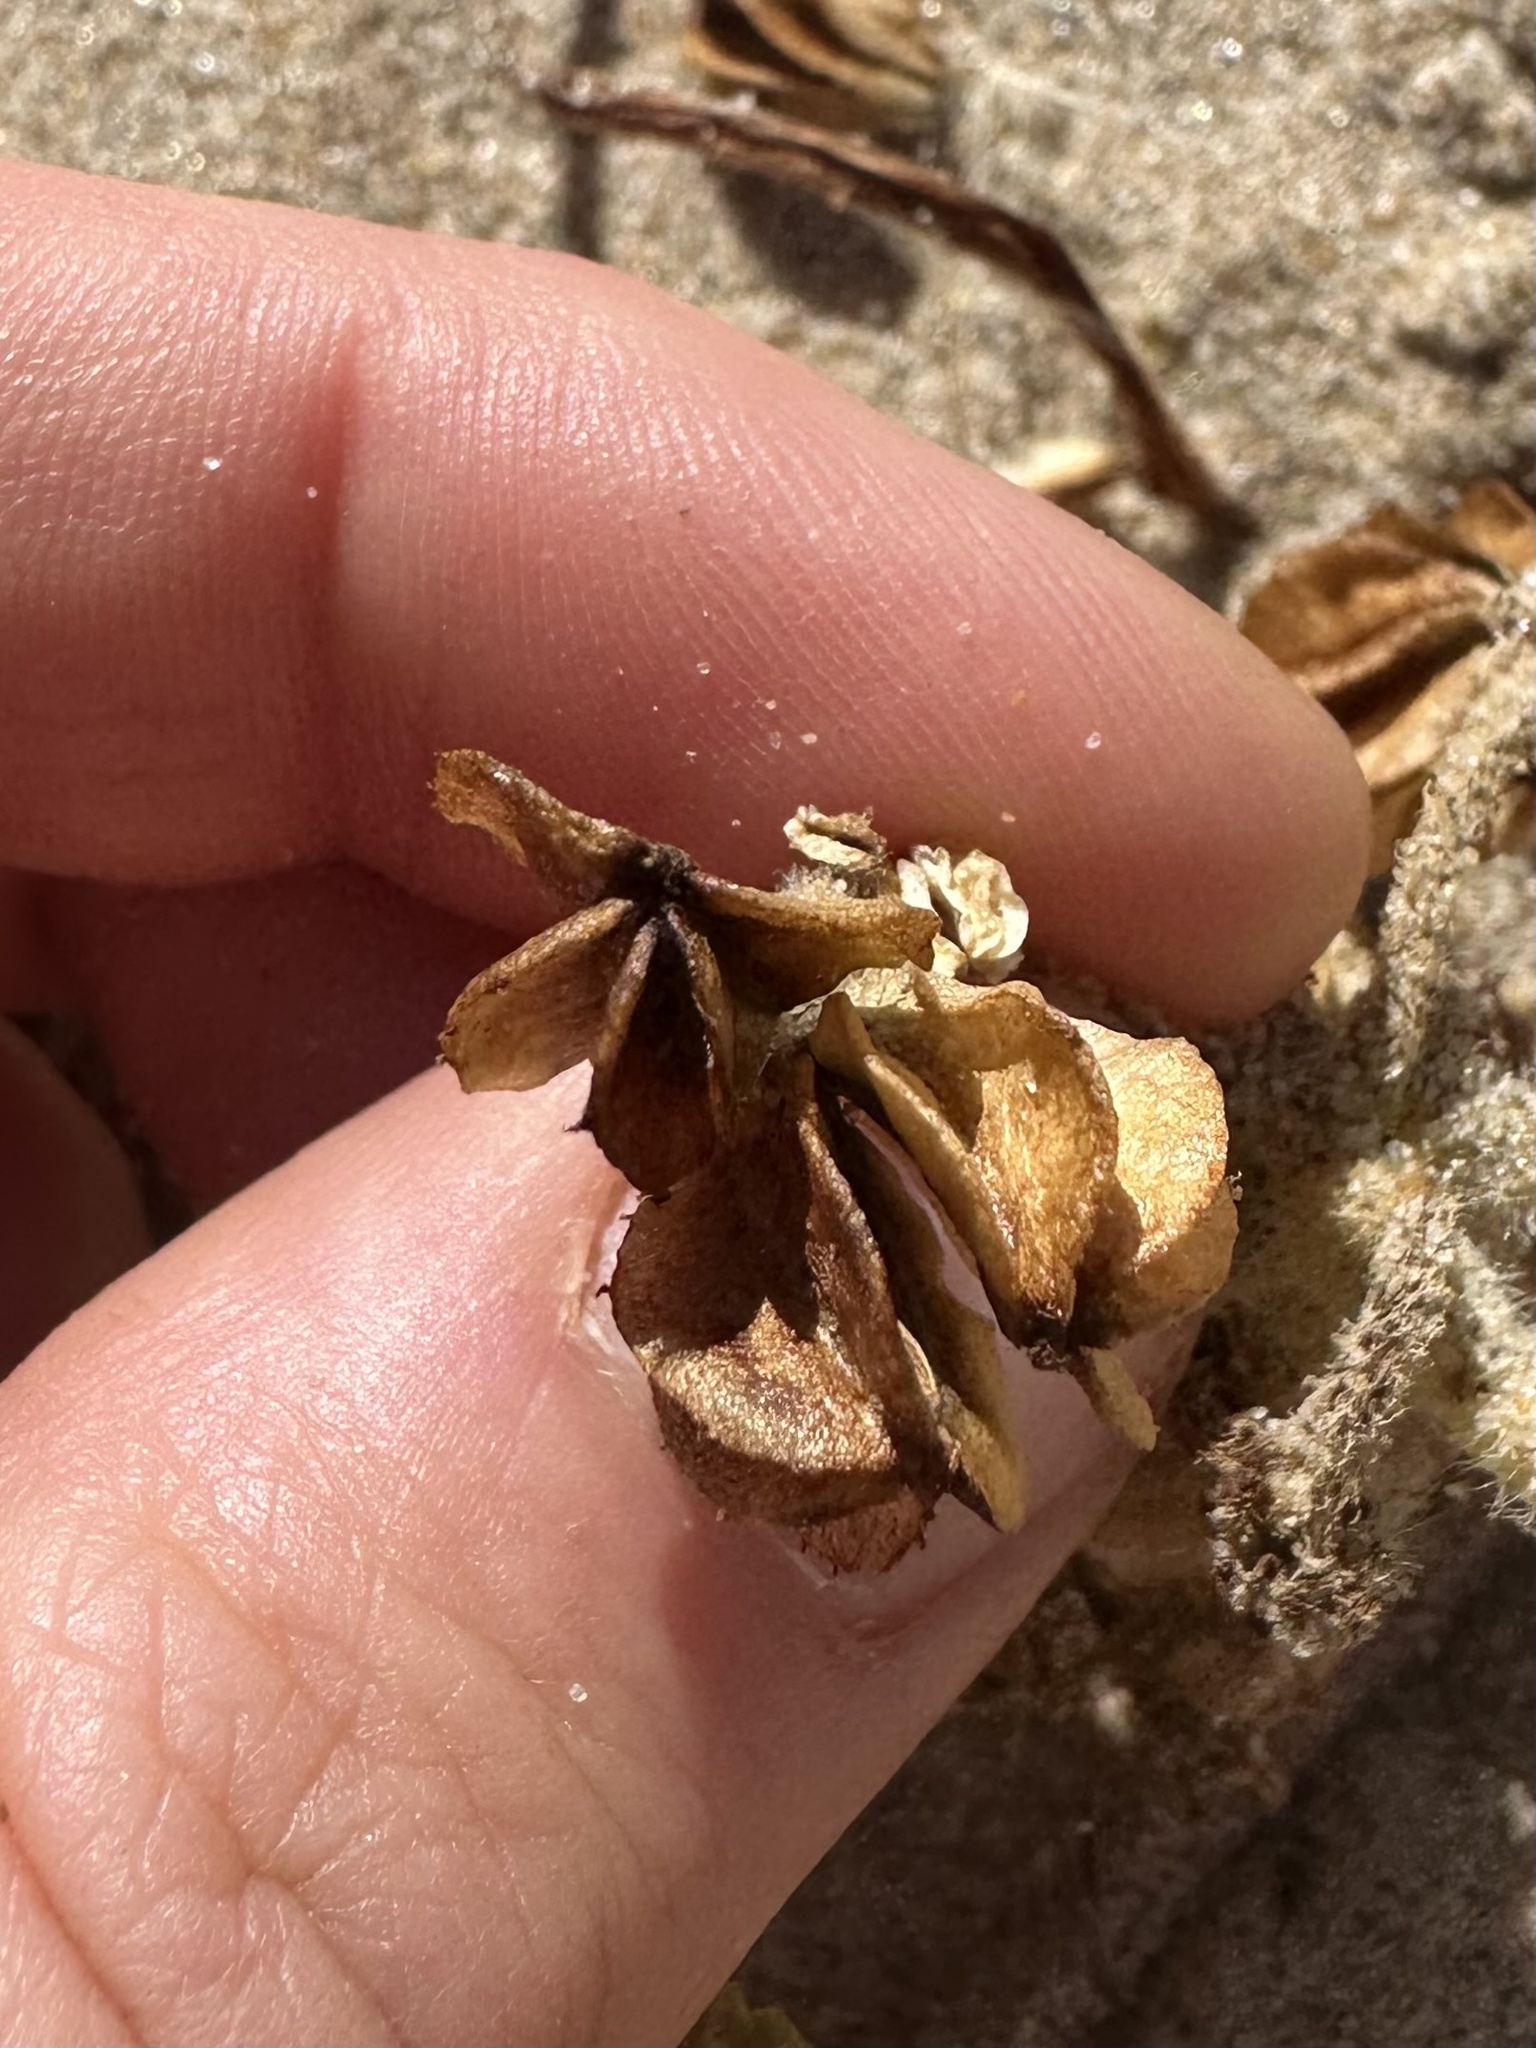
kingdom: Plantae
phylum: Tracheophyta
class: Magnoliopsida
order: Apiales
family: Apiaceae
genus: Glehnia
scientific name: Glehnia littoralis
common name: Beach silvertop
